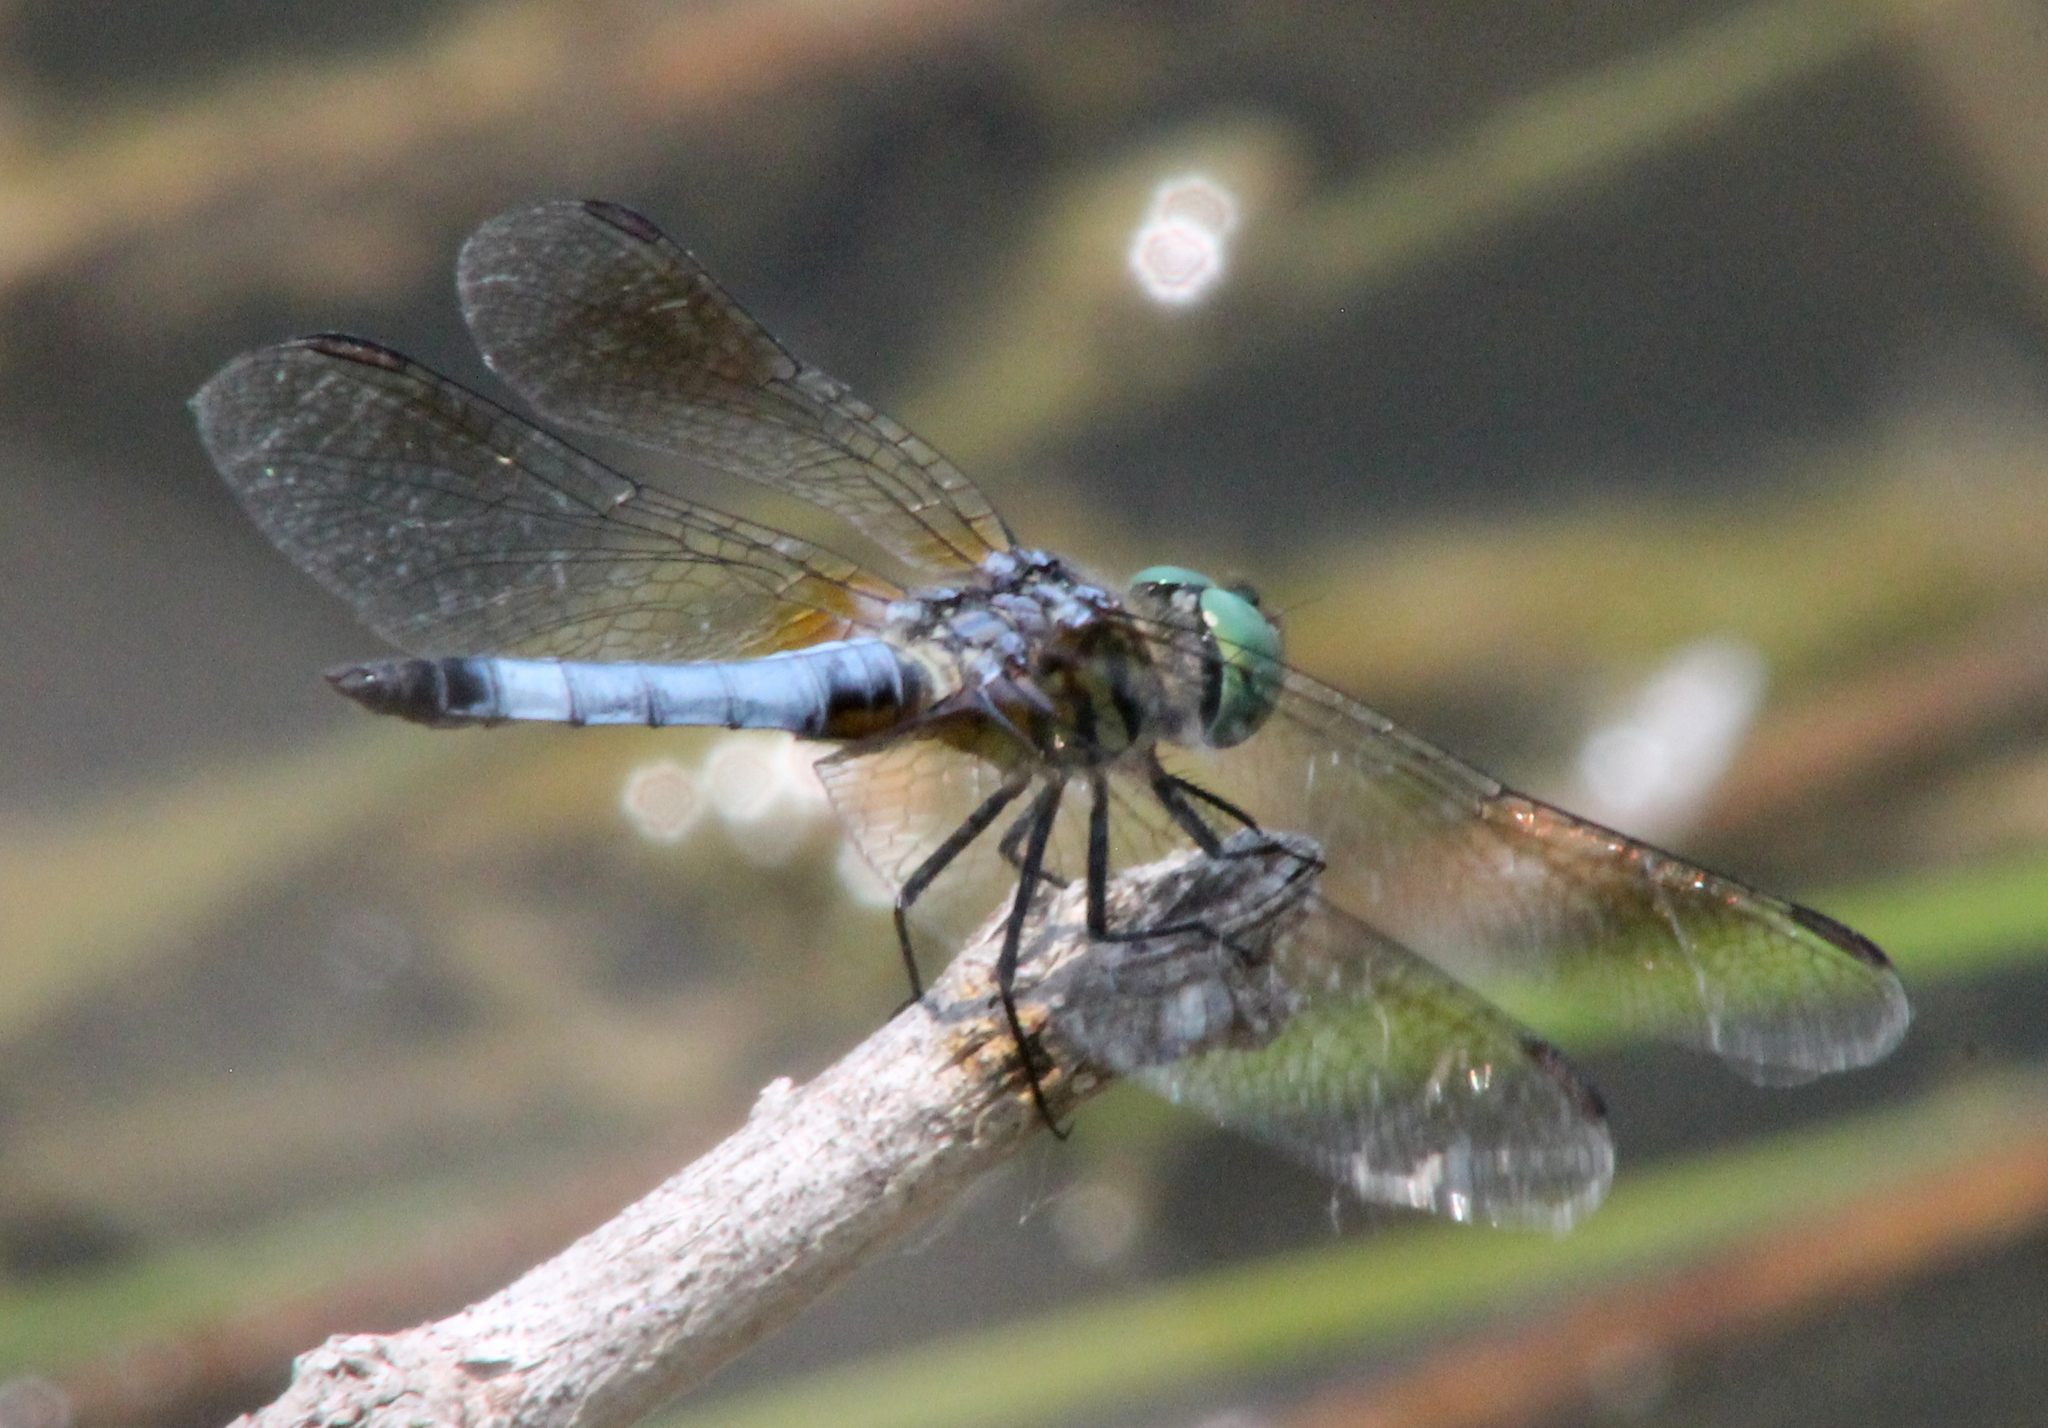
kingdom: Animalia
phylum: Arthropoda
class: Insecta
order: Odonata
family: Libellulidae
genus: Pachydiplax
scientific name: Pachydiplax longipennis
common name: Blue dasher
